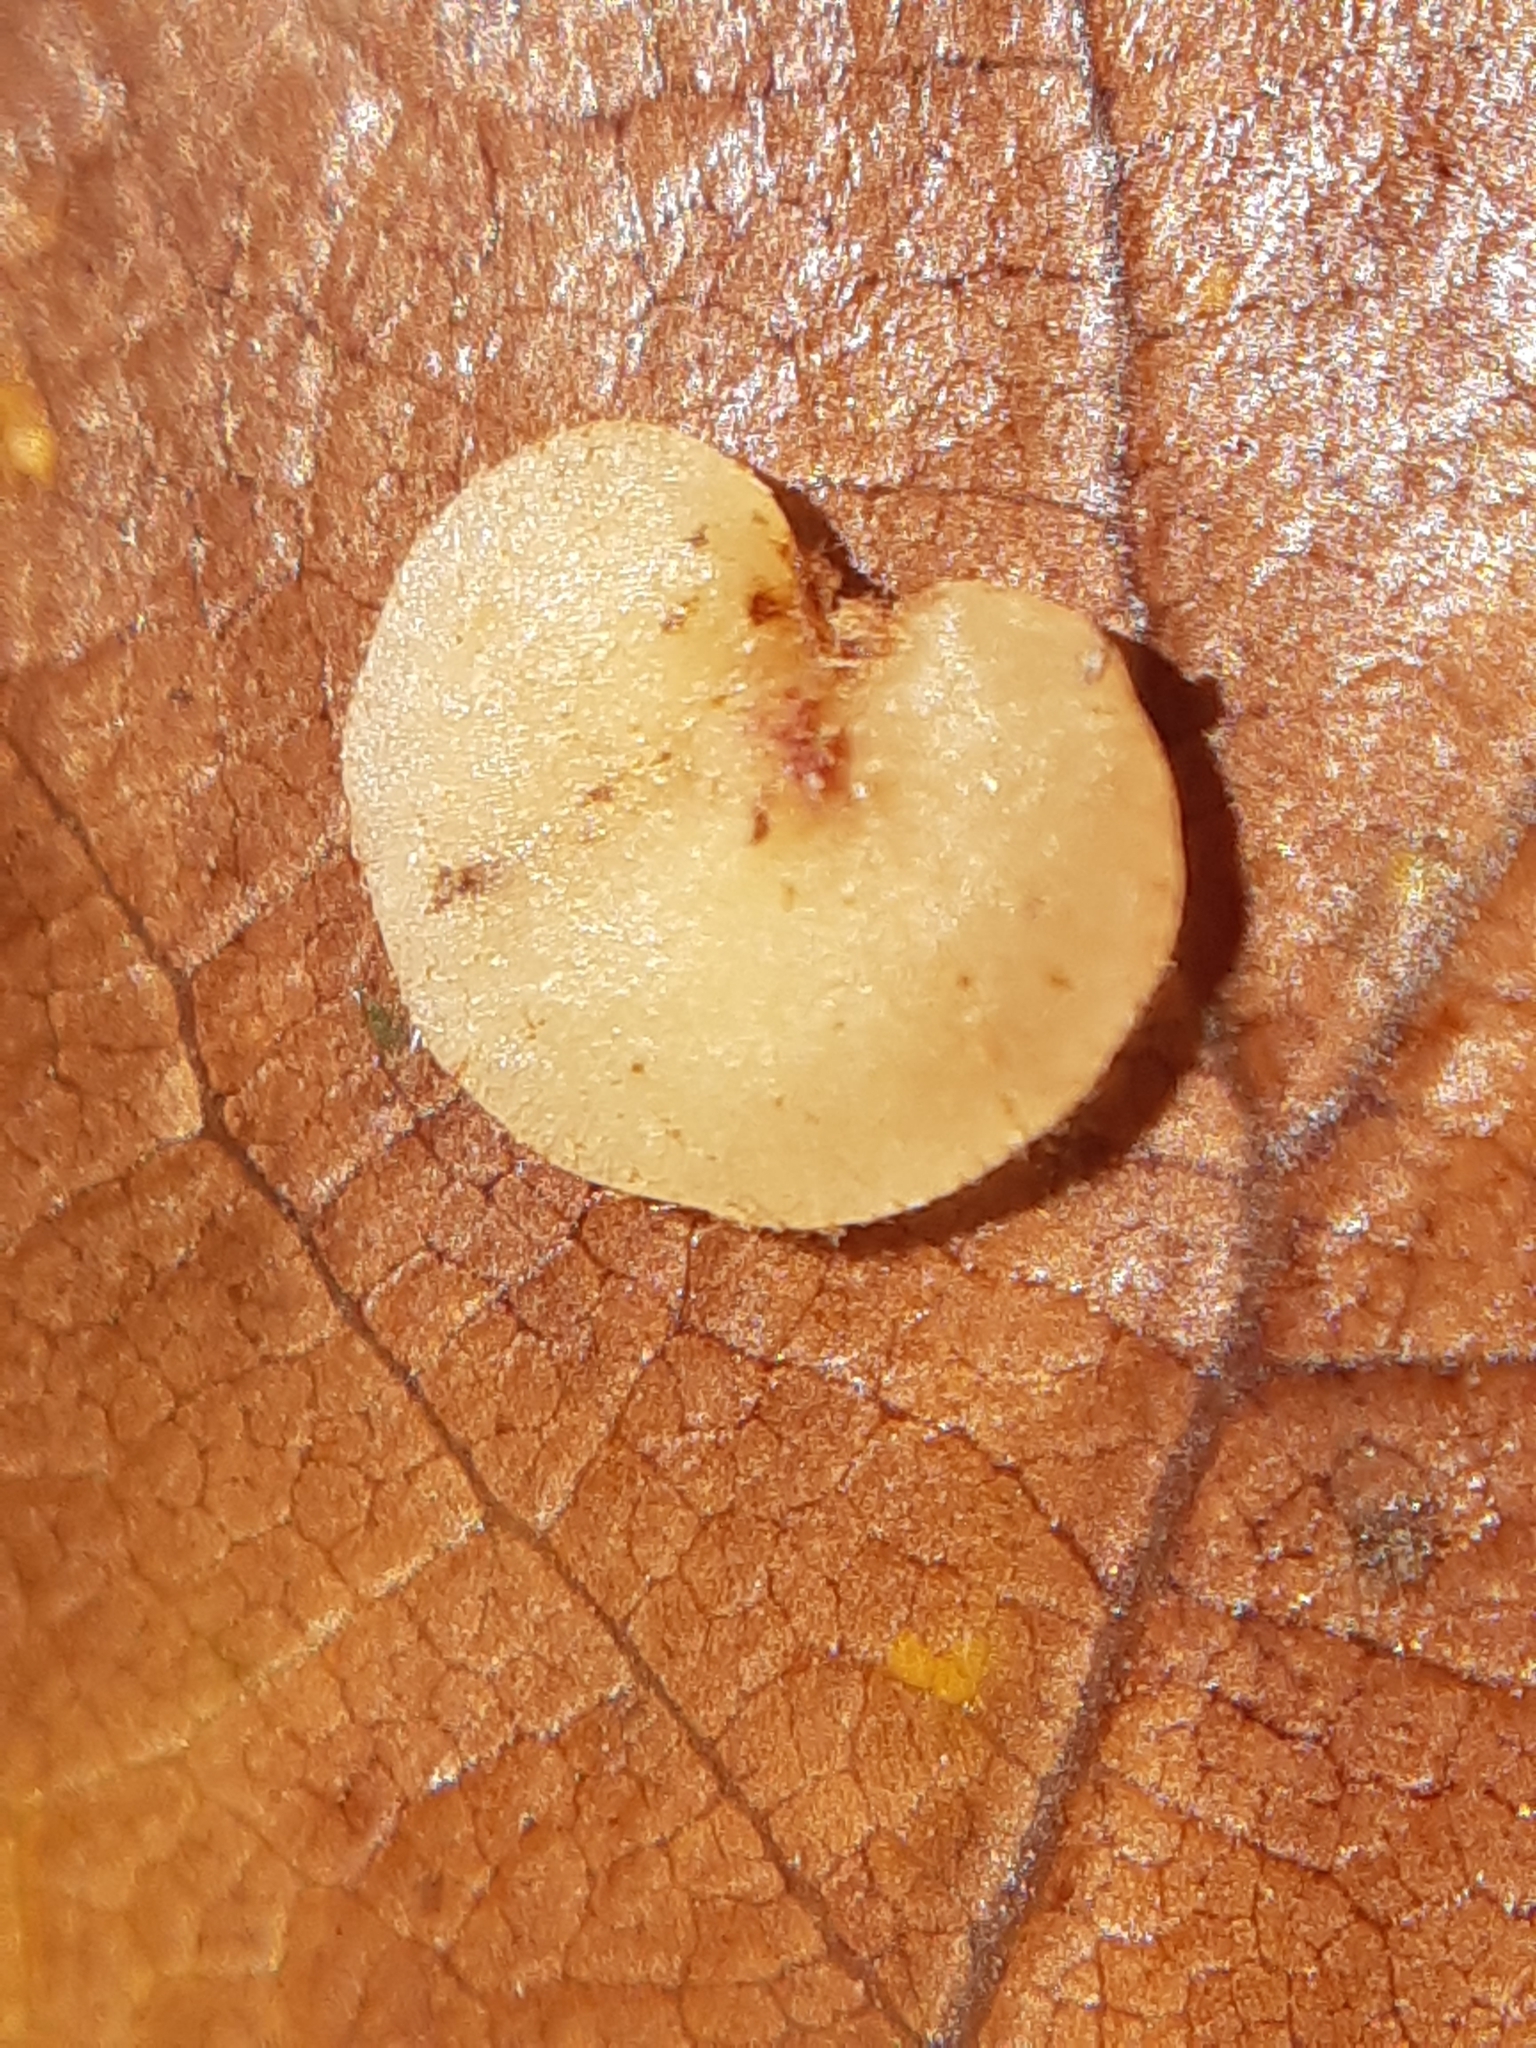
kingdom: Animalia
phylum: Arthropoda
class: Insecta
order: Hymenoptera
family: Cynipidae
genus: Neuroterus
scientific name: Neuroterus albipes
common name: Smooth spangle gall
